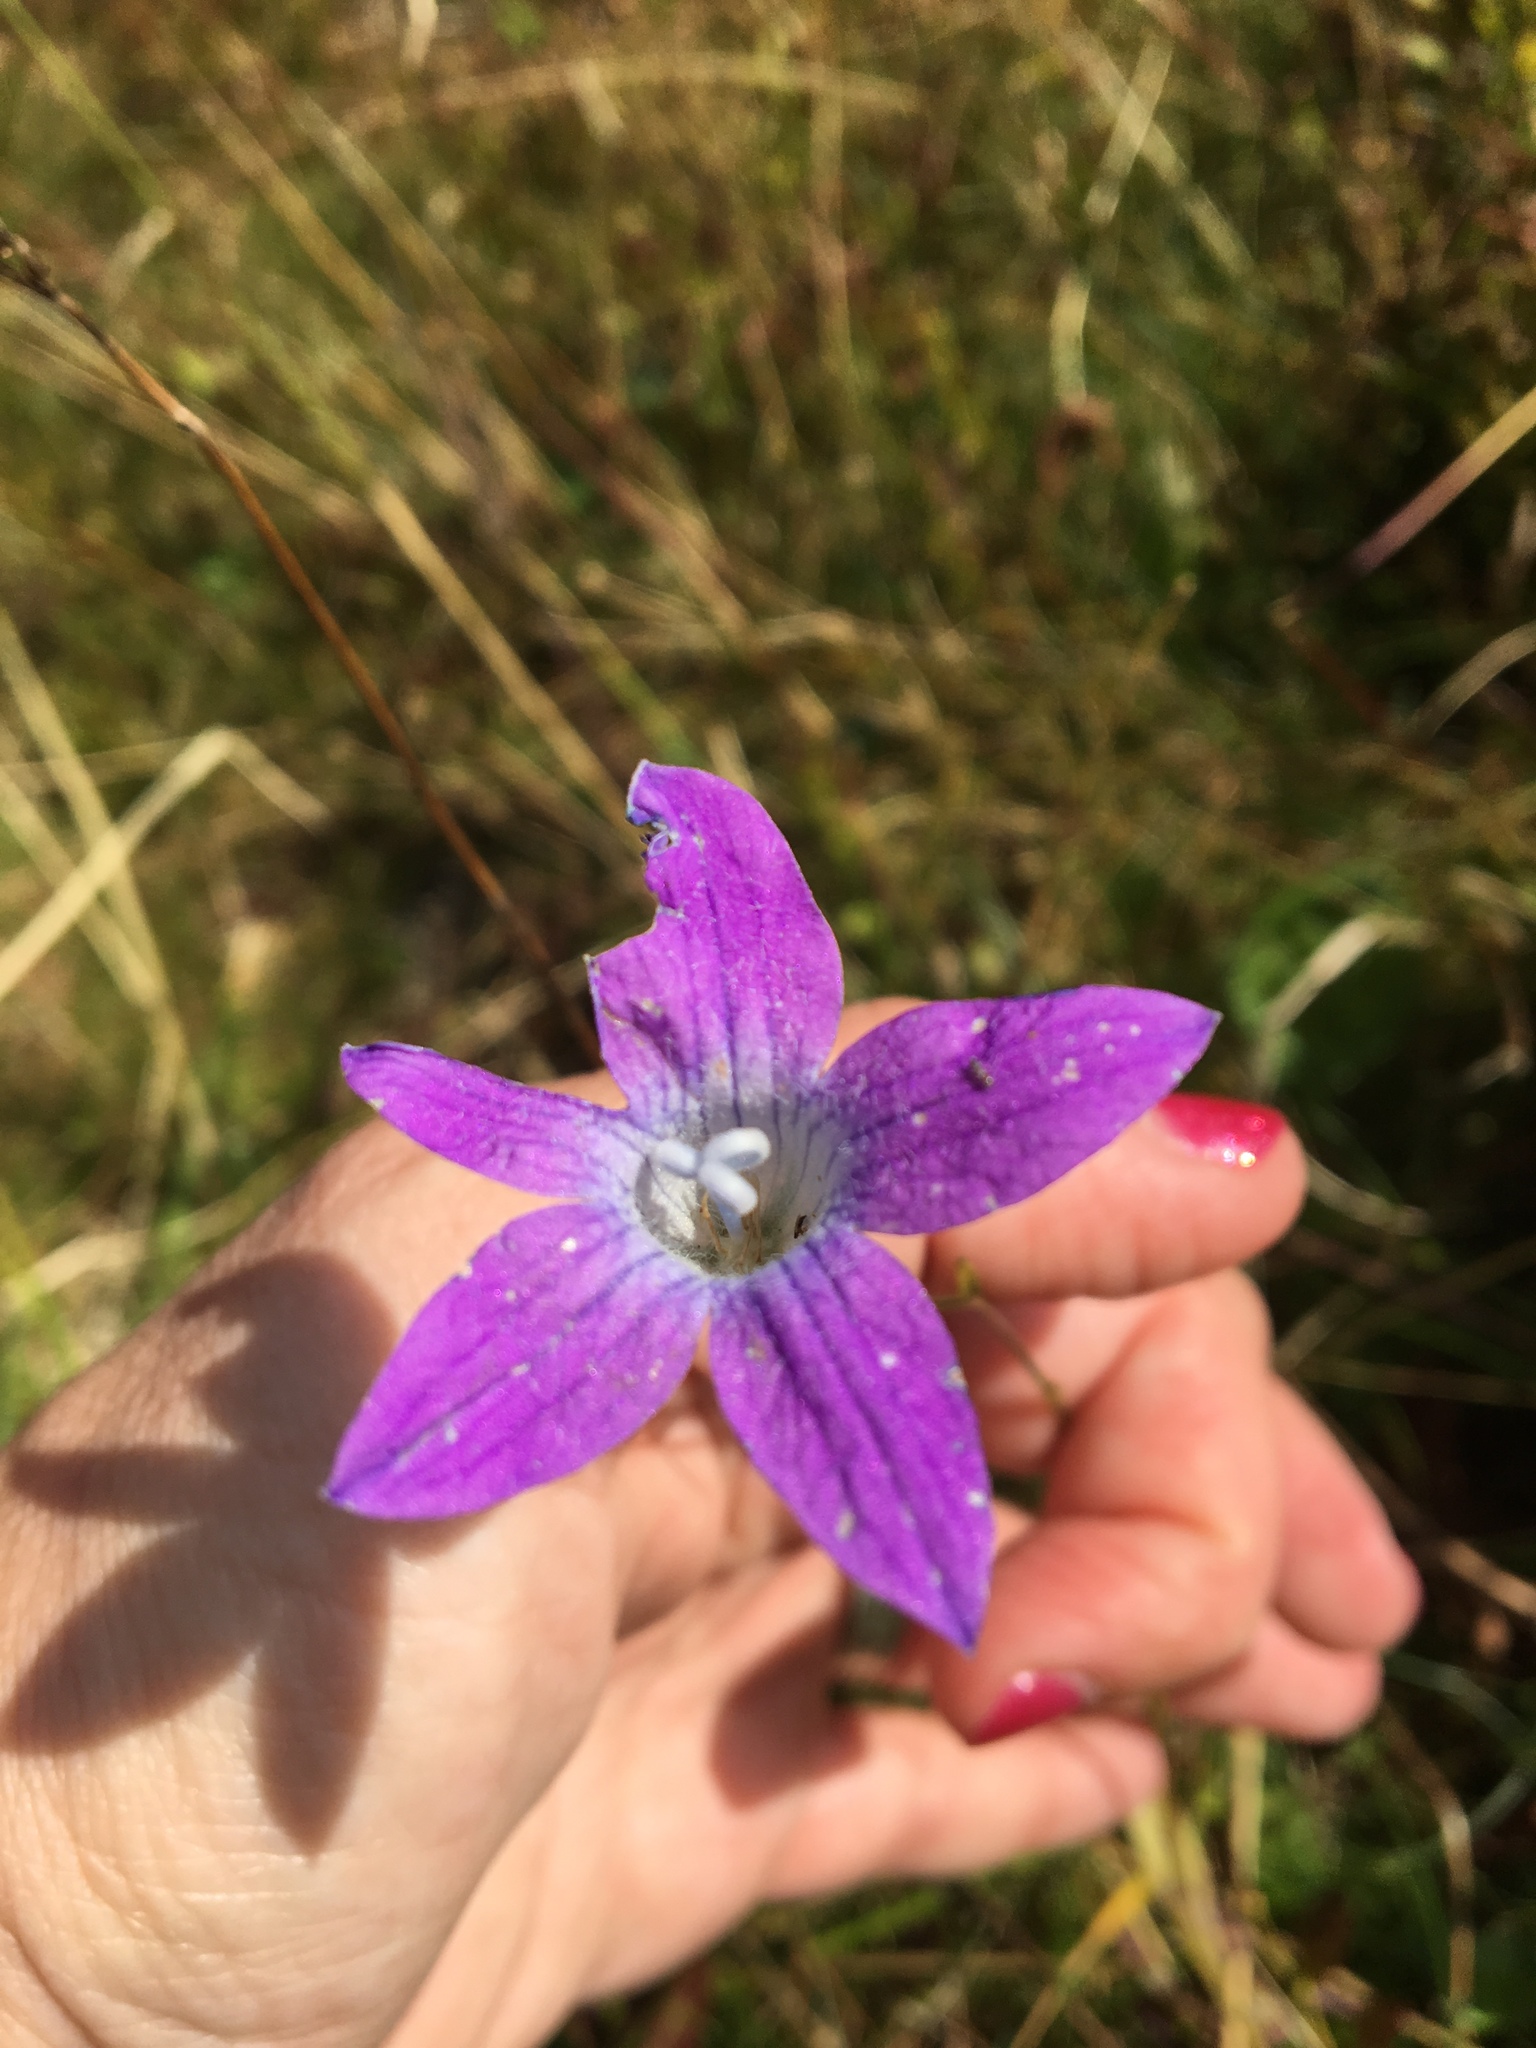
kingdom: Plantae
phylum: Tracheophyta
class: Magnoliopsida
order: Asterales
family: Campanulaceae
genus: Campanula
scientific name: Campanula patula
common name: Spreading bellflower
